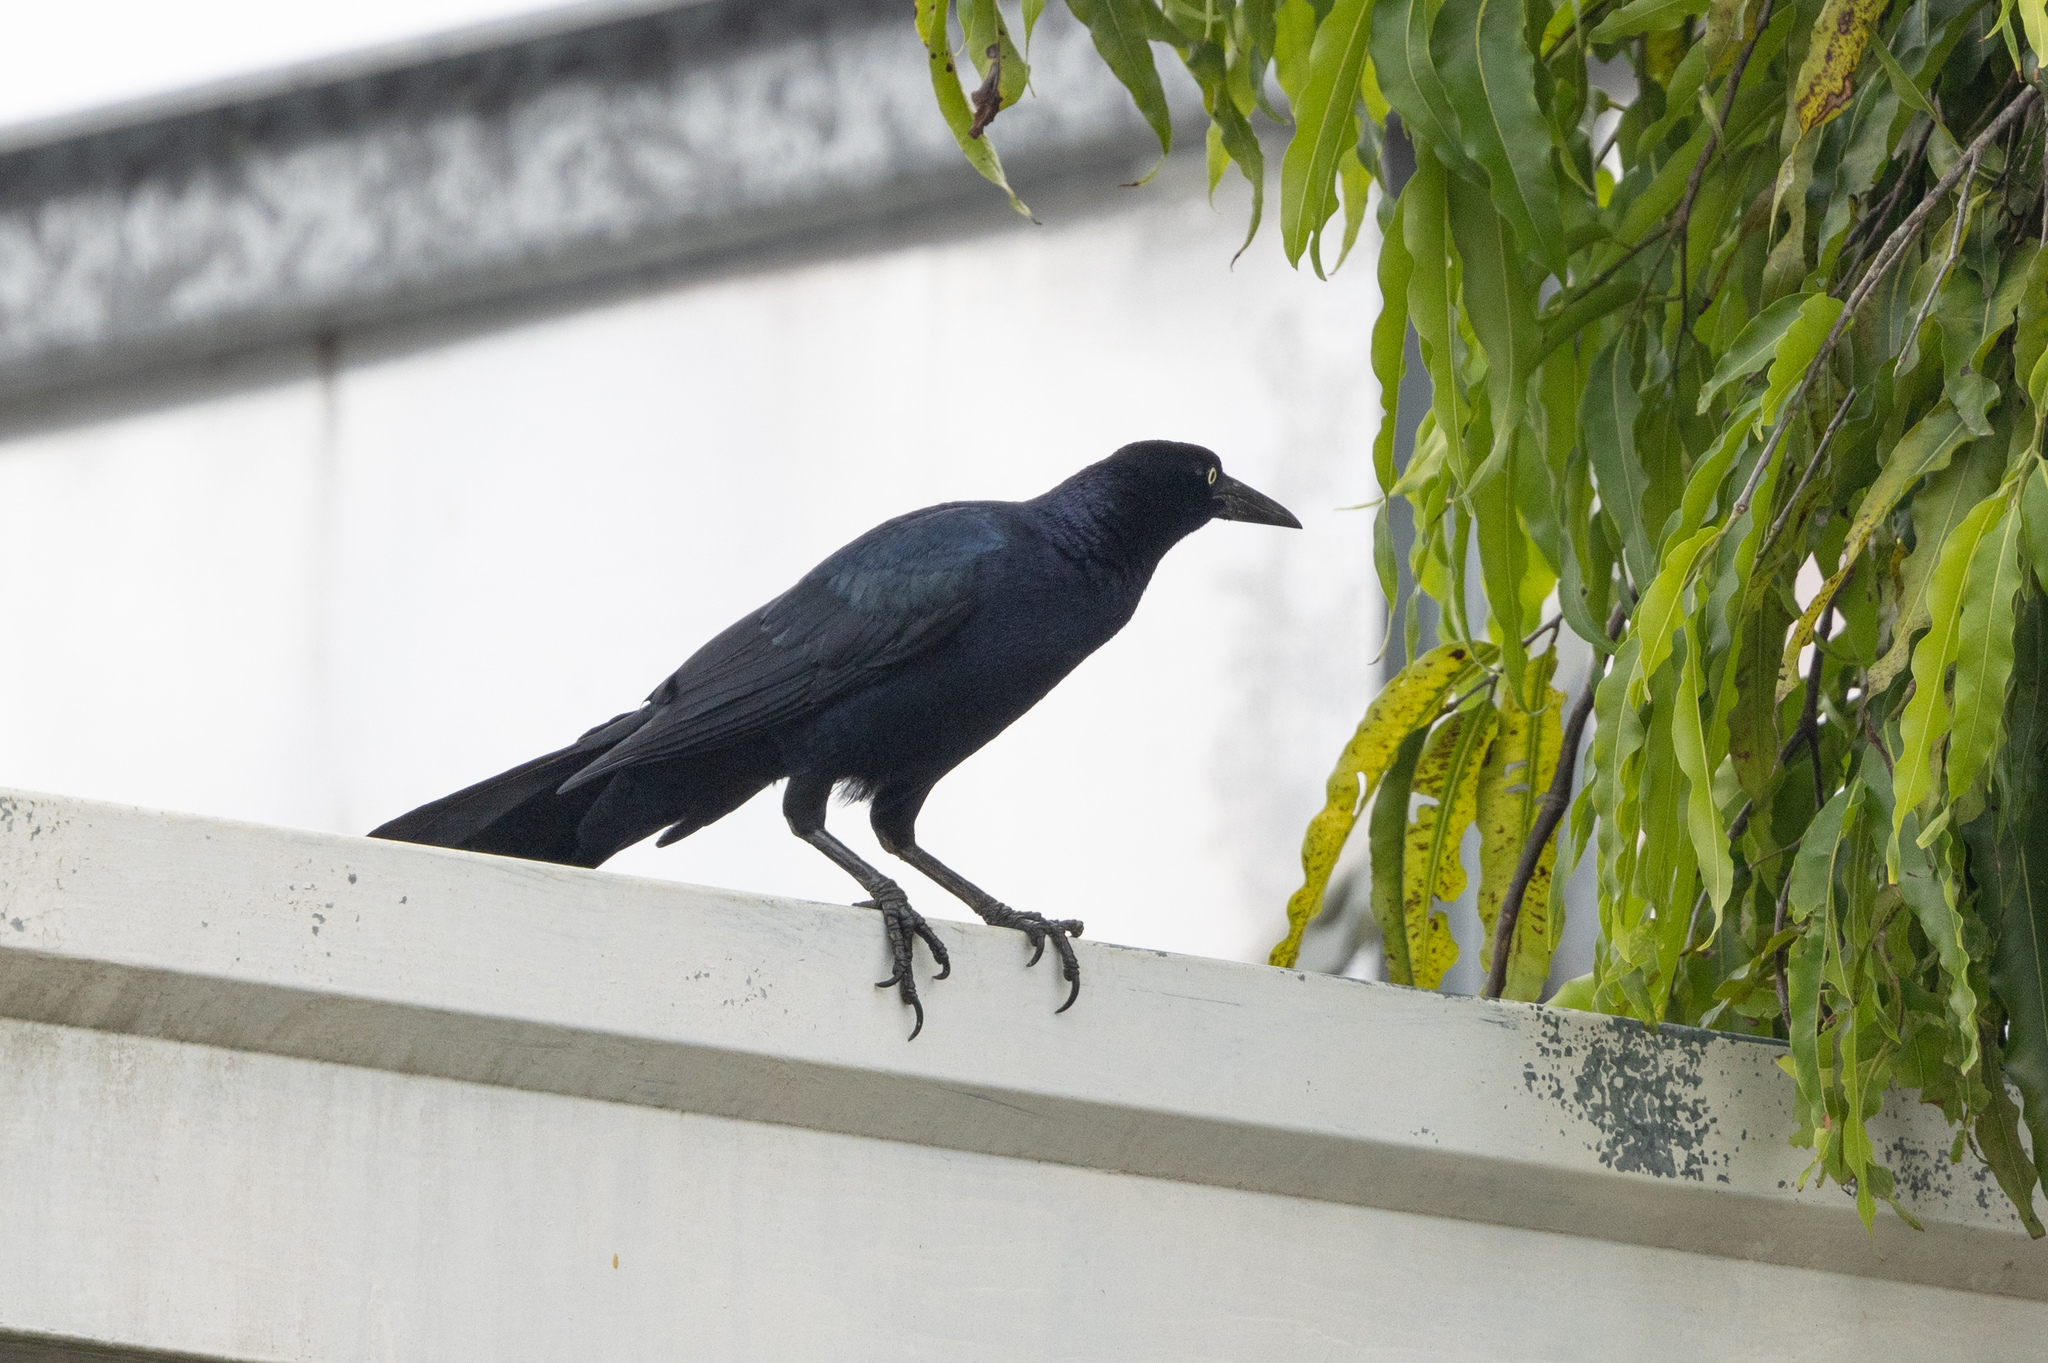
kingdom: Animalia
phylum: Chordata
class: Aves
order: Passeriformes
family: Icteridae
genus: Quiscalus
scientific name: Quiscalus mexicanus
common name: Great-tailed grackle
